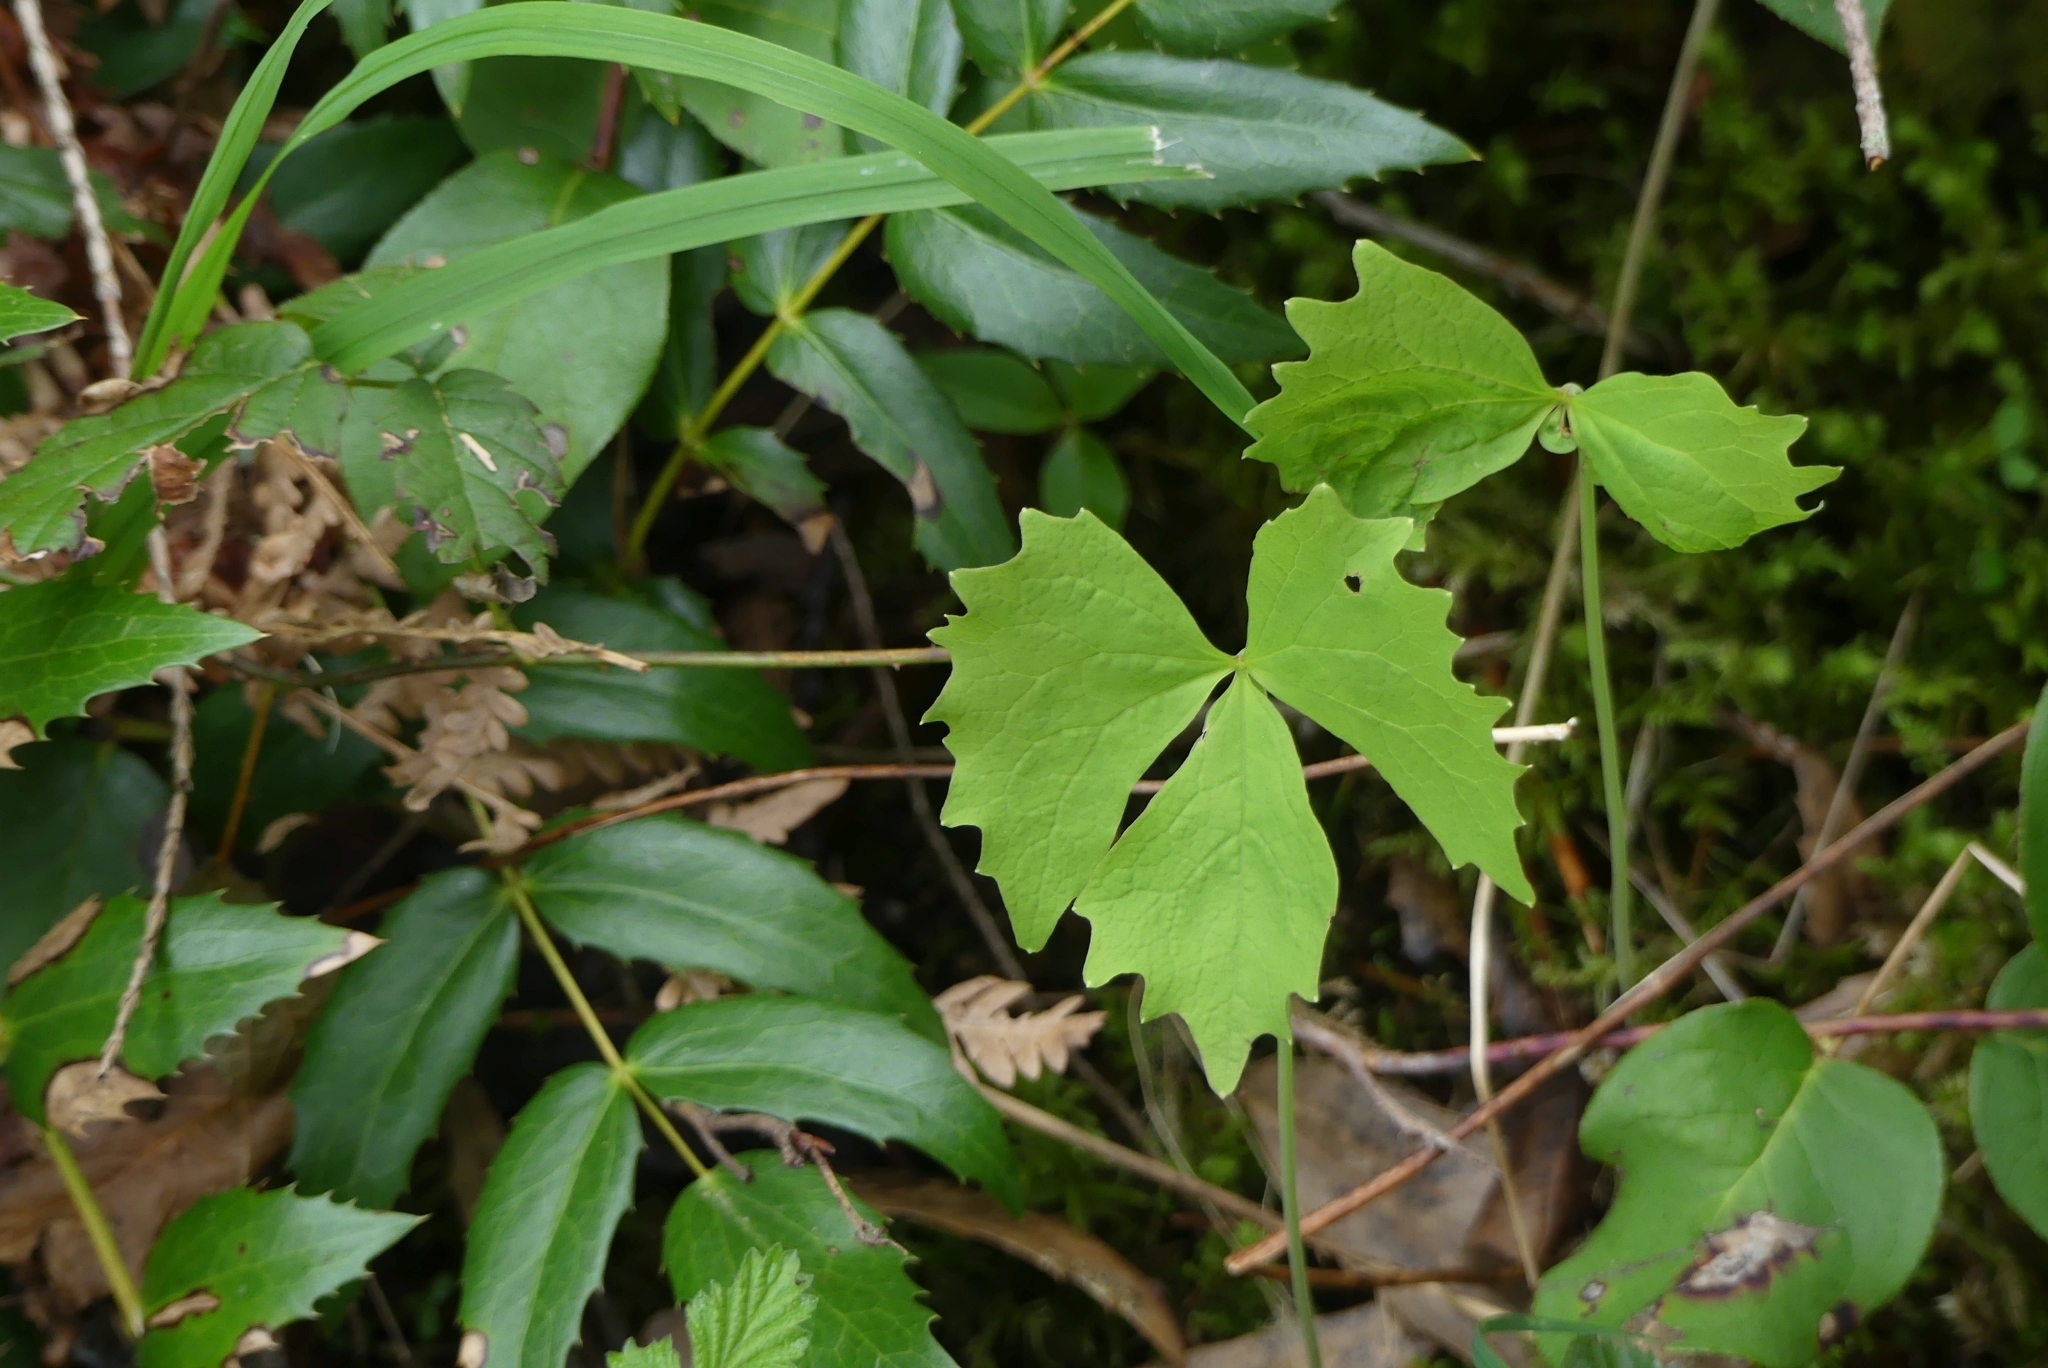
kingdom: Plantae
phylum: Tracheophyta
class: Magnoliopsida
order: Ranunculales
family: Berberidaceae
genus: Achlys
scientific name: Achlys triphylla
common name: Vanilla-leaf
